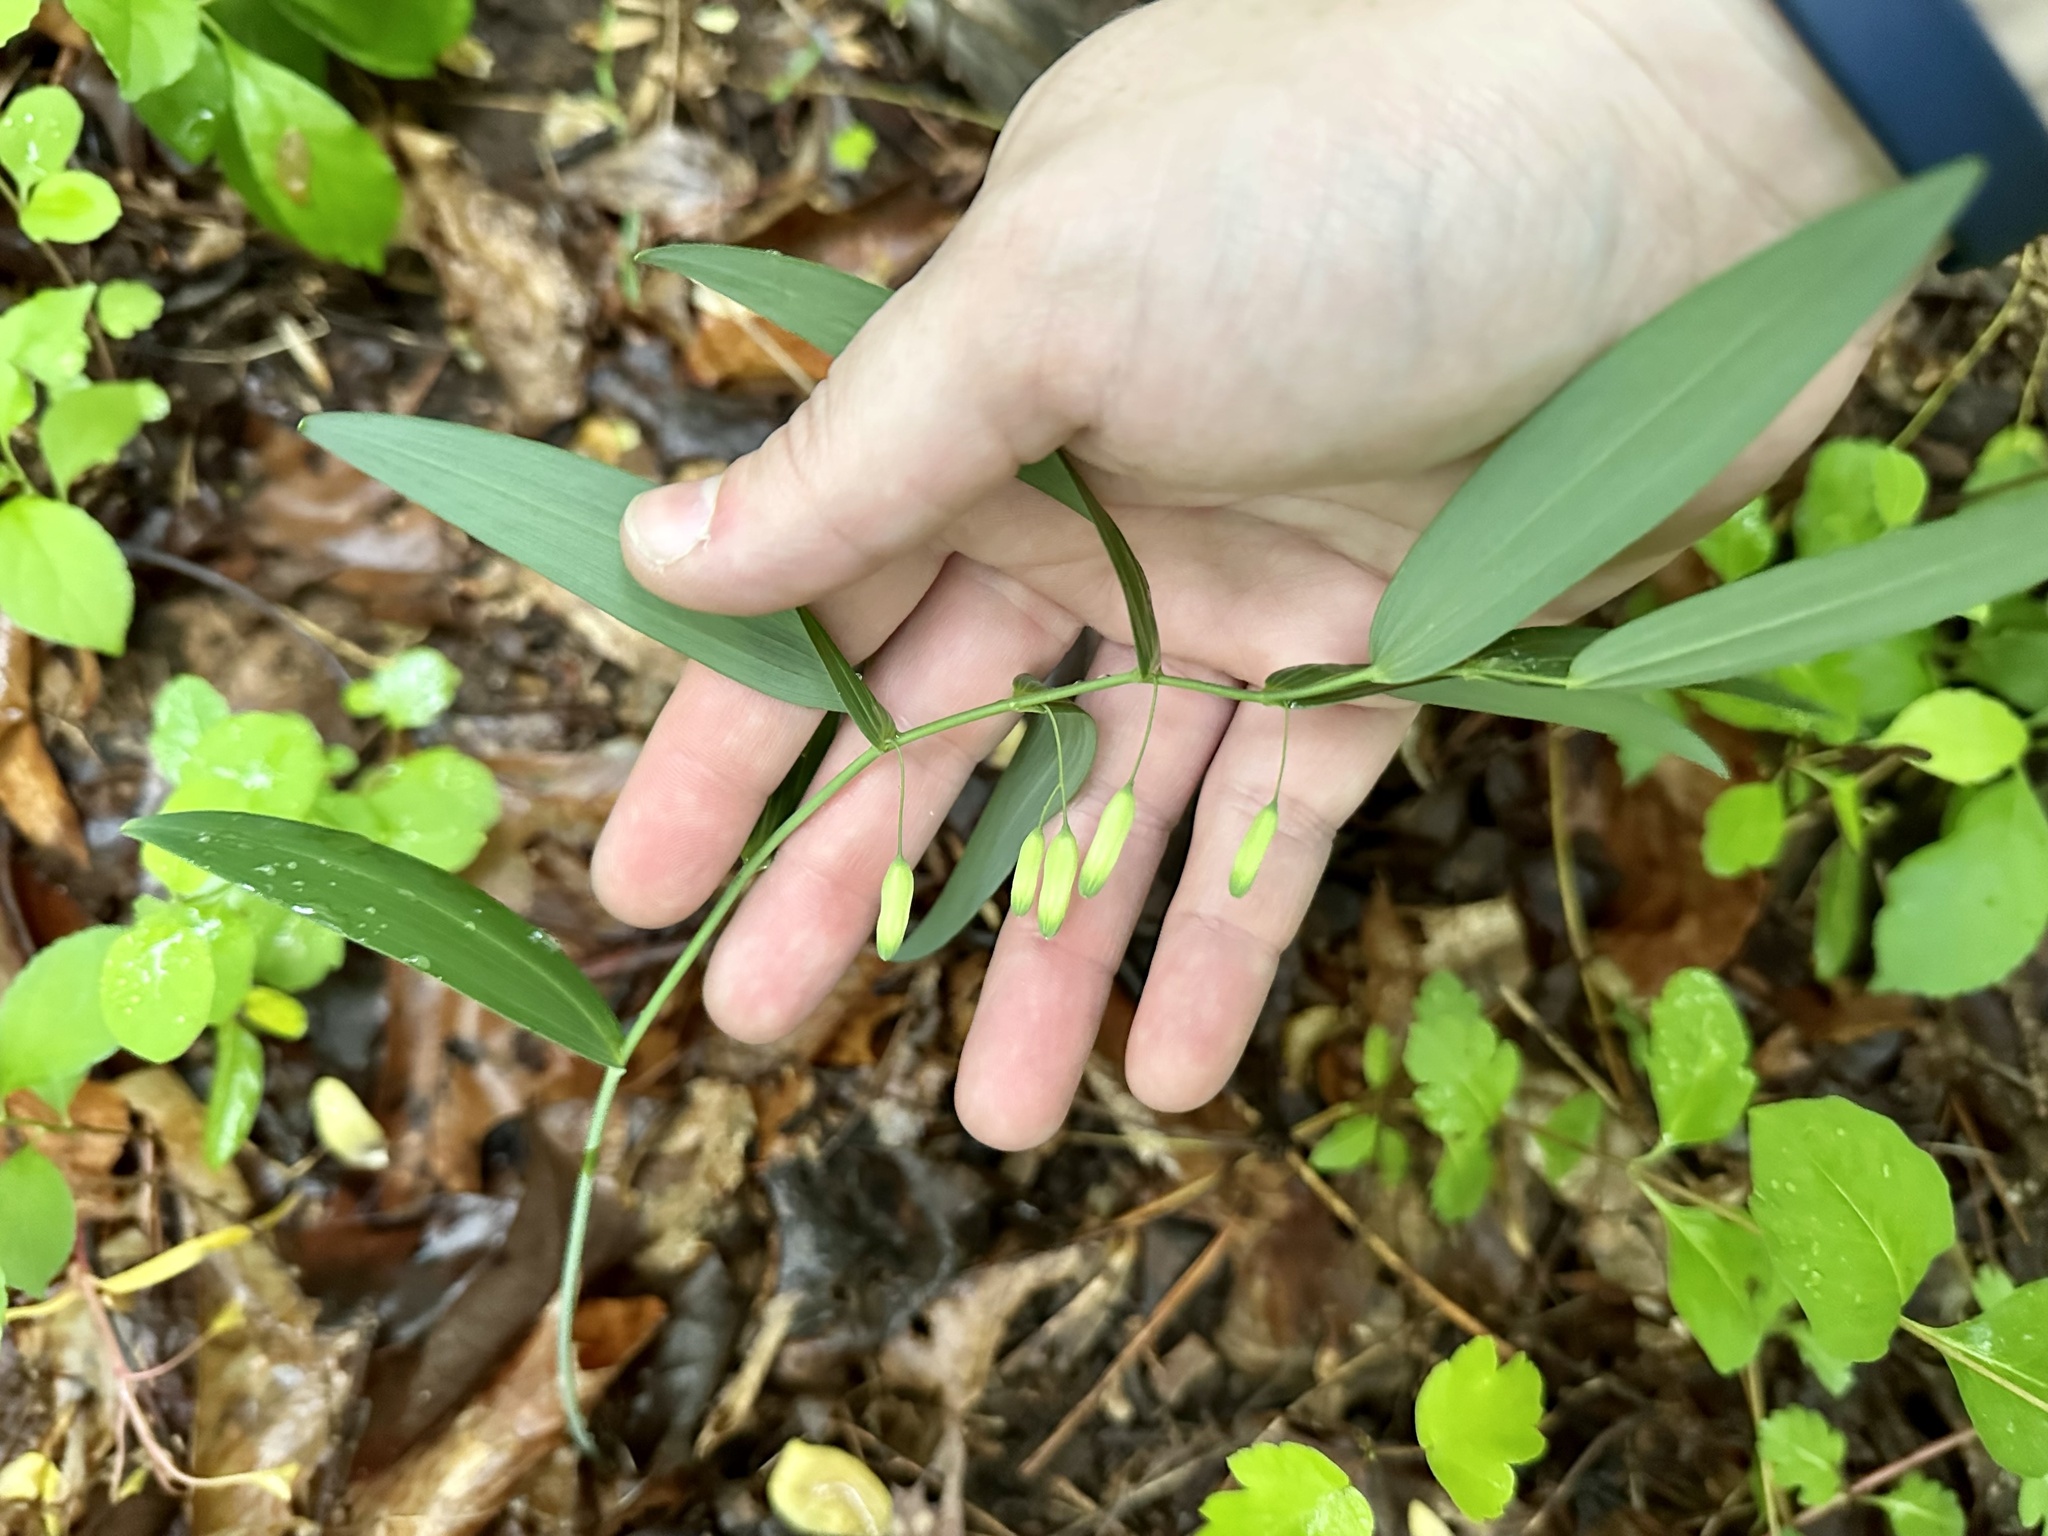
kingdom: Plantae
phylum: Tracheophyta
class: Liliopsida
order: Asparagales
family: Asparagaceae
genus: Polygonatum
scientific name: Polygonatum biflorum
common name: American solomon's-seal
